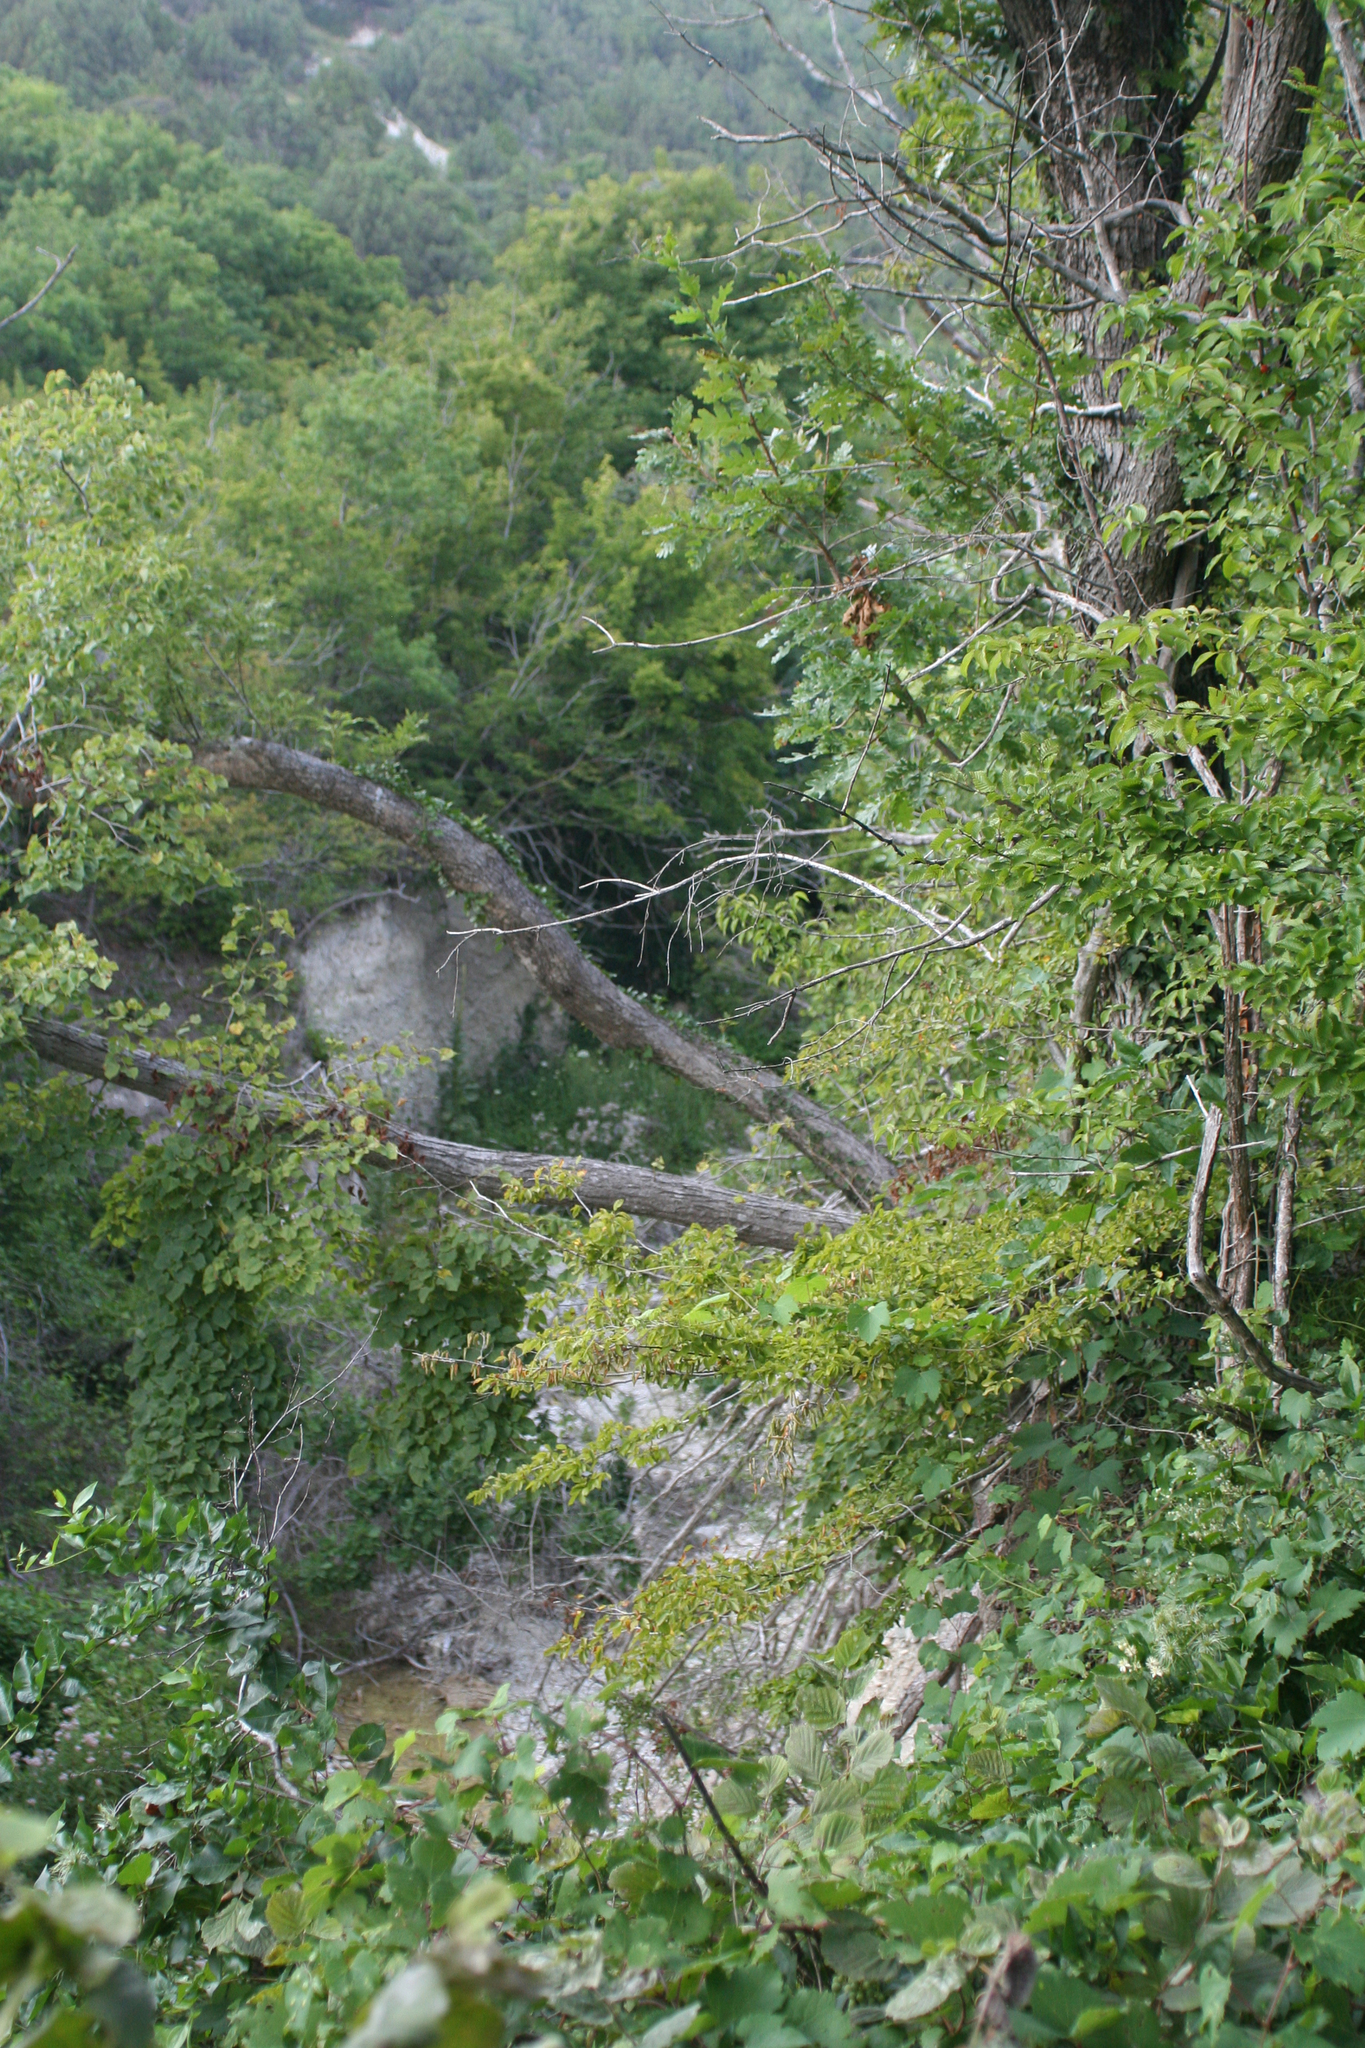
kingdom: Plantae
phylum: Tracheophyta
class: Magnoliopsida
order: Fagales
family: Betulaceae
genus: Carpinus
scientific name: Carpinus orientalis
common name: Eastern hornbeam
